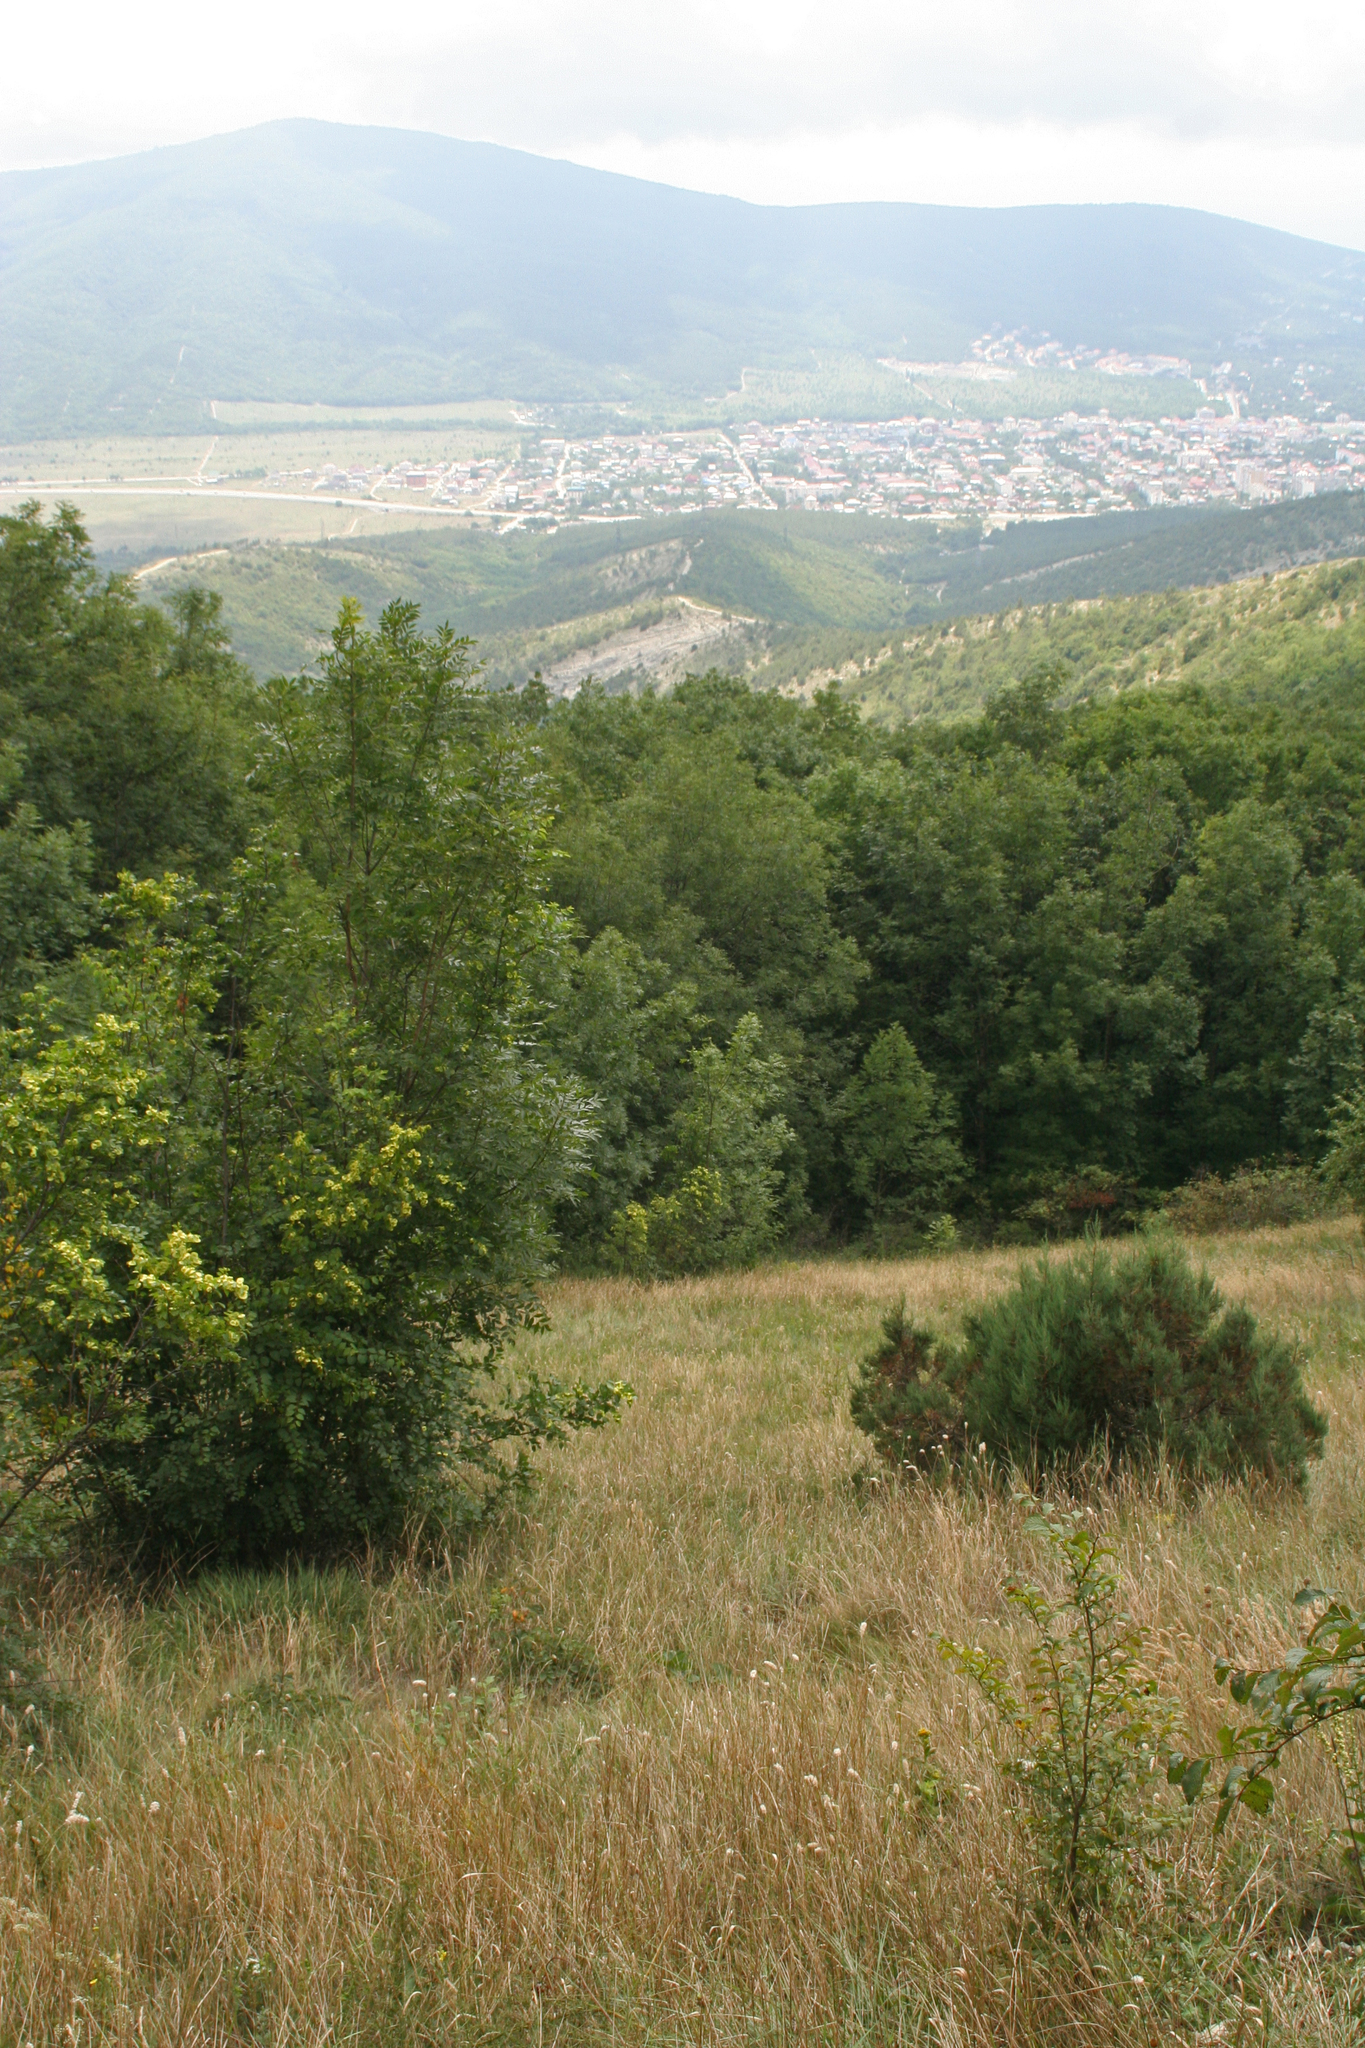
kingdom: Plantae
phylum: Tracheophyta
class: Magnoliopsida
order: Rosales
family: Rhamnaceae
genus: Paliurus
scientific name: Paliurus spina-christi
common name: Jeruselem thorn
